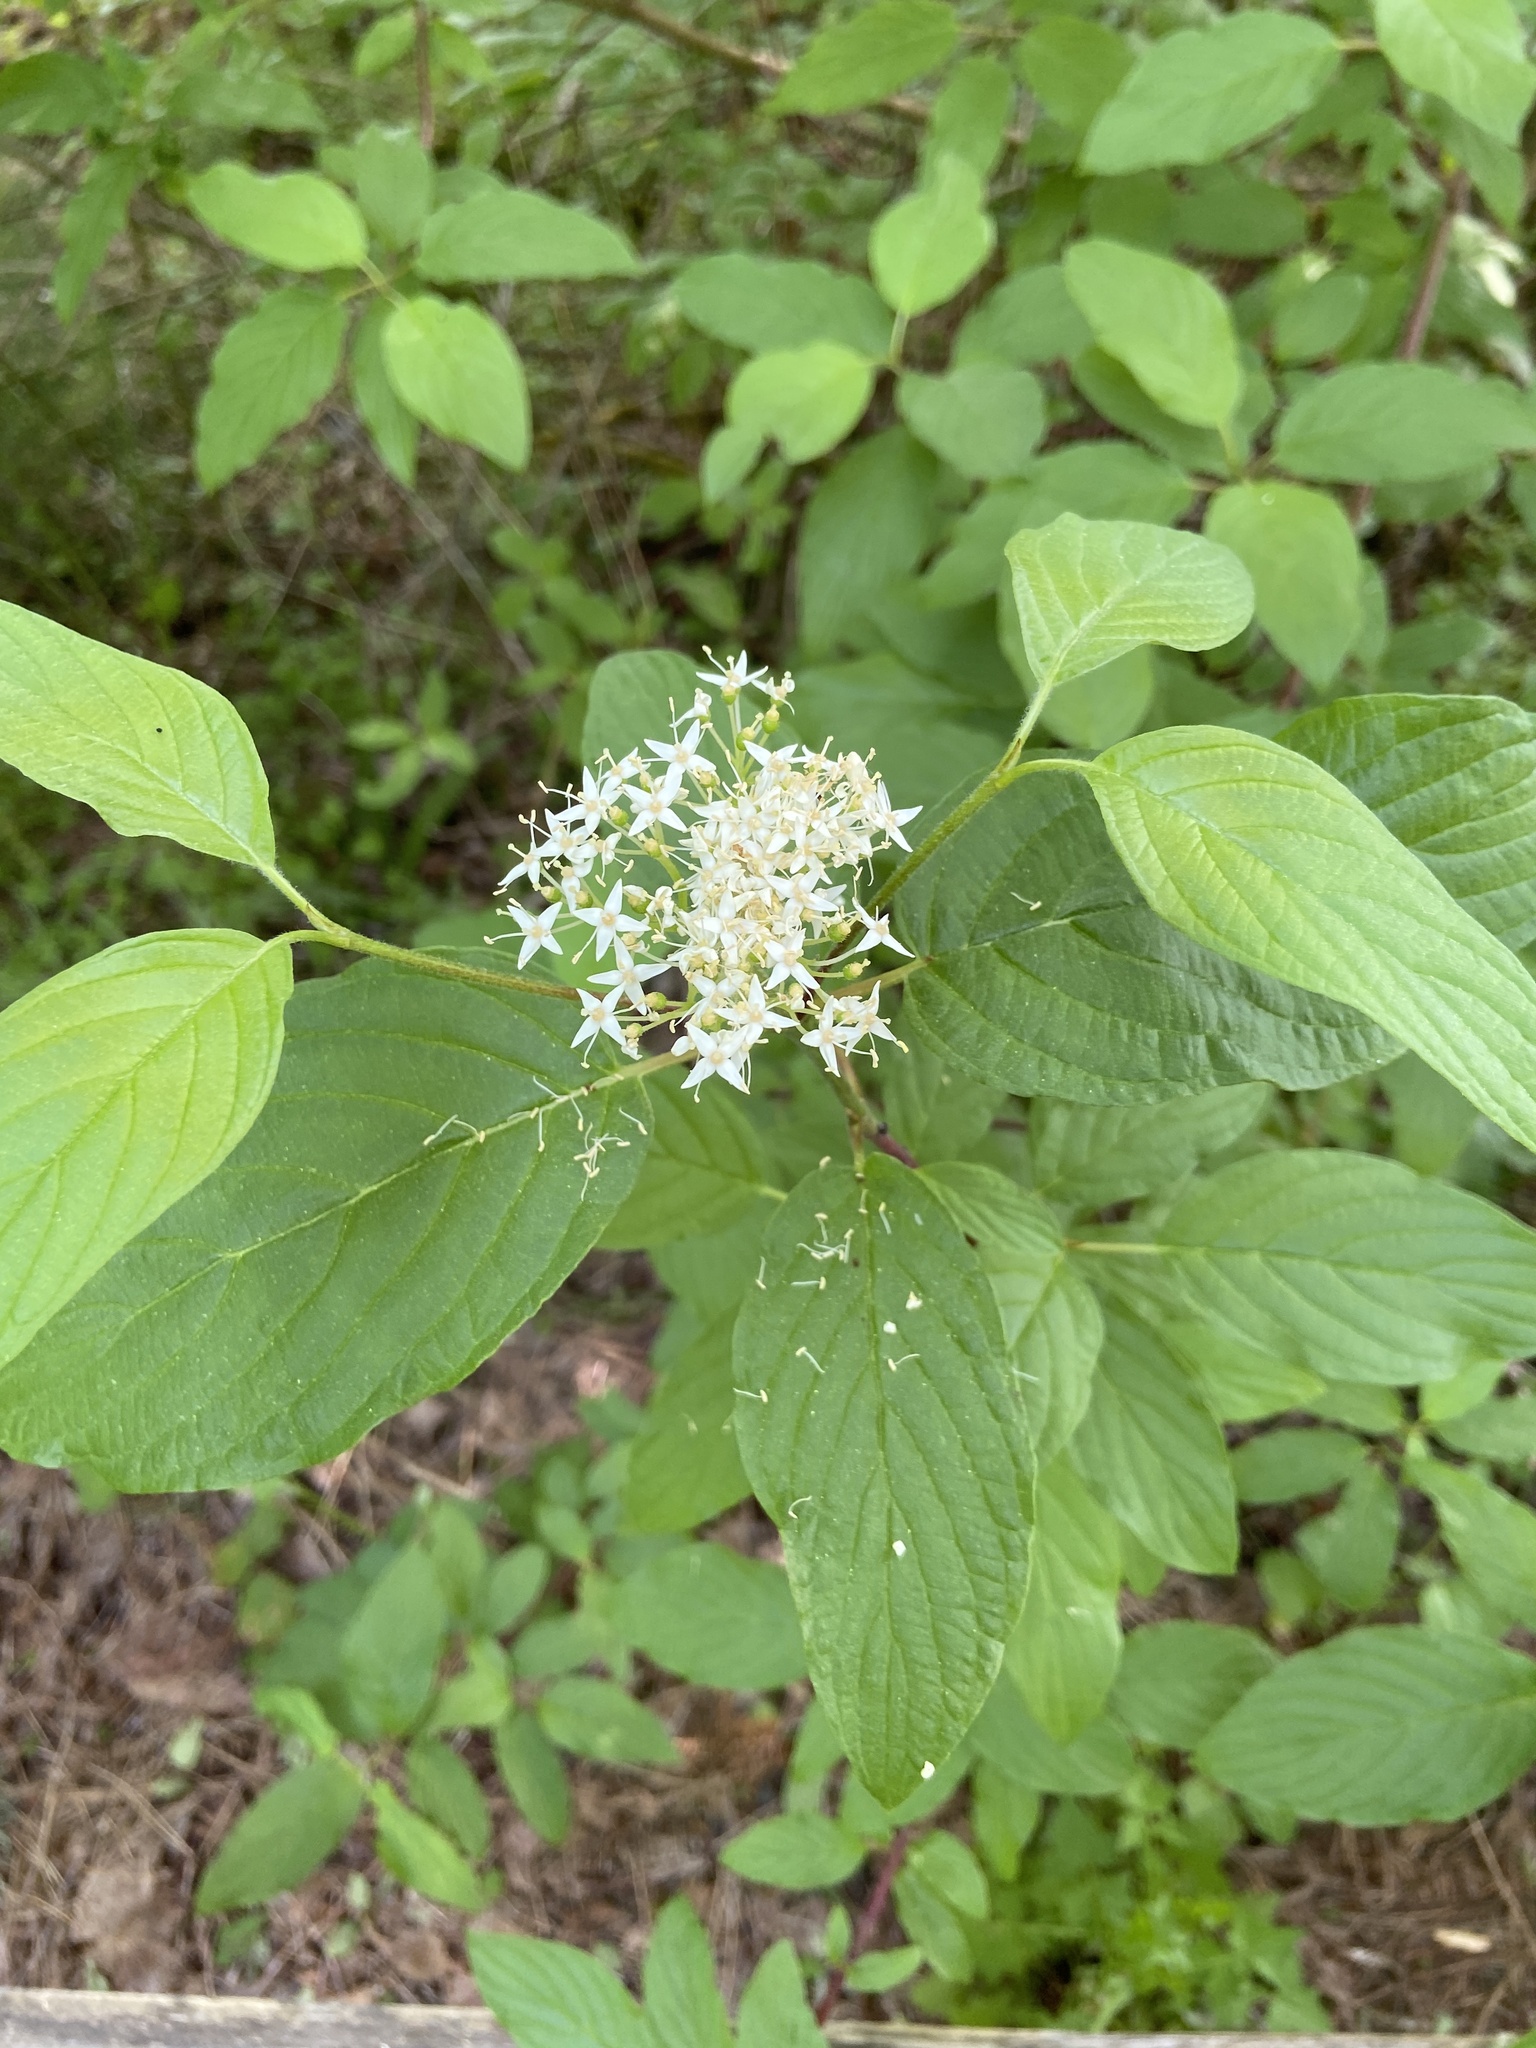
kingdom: Plantae
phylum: Tracheophyta
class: Magnoliopsida
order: Cornales
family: Cornaceae
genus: Cornus
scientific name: Cornus sericea
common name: Red-osier dogwood
